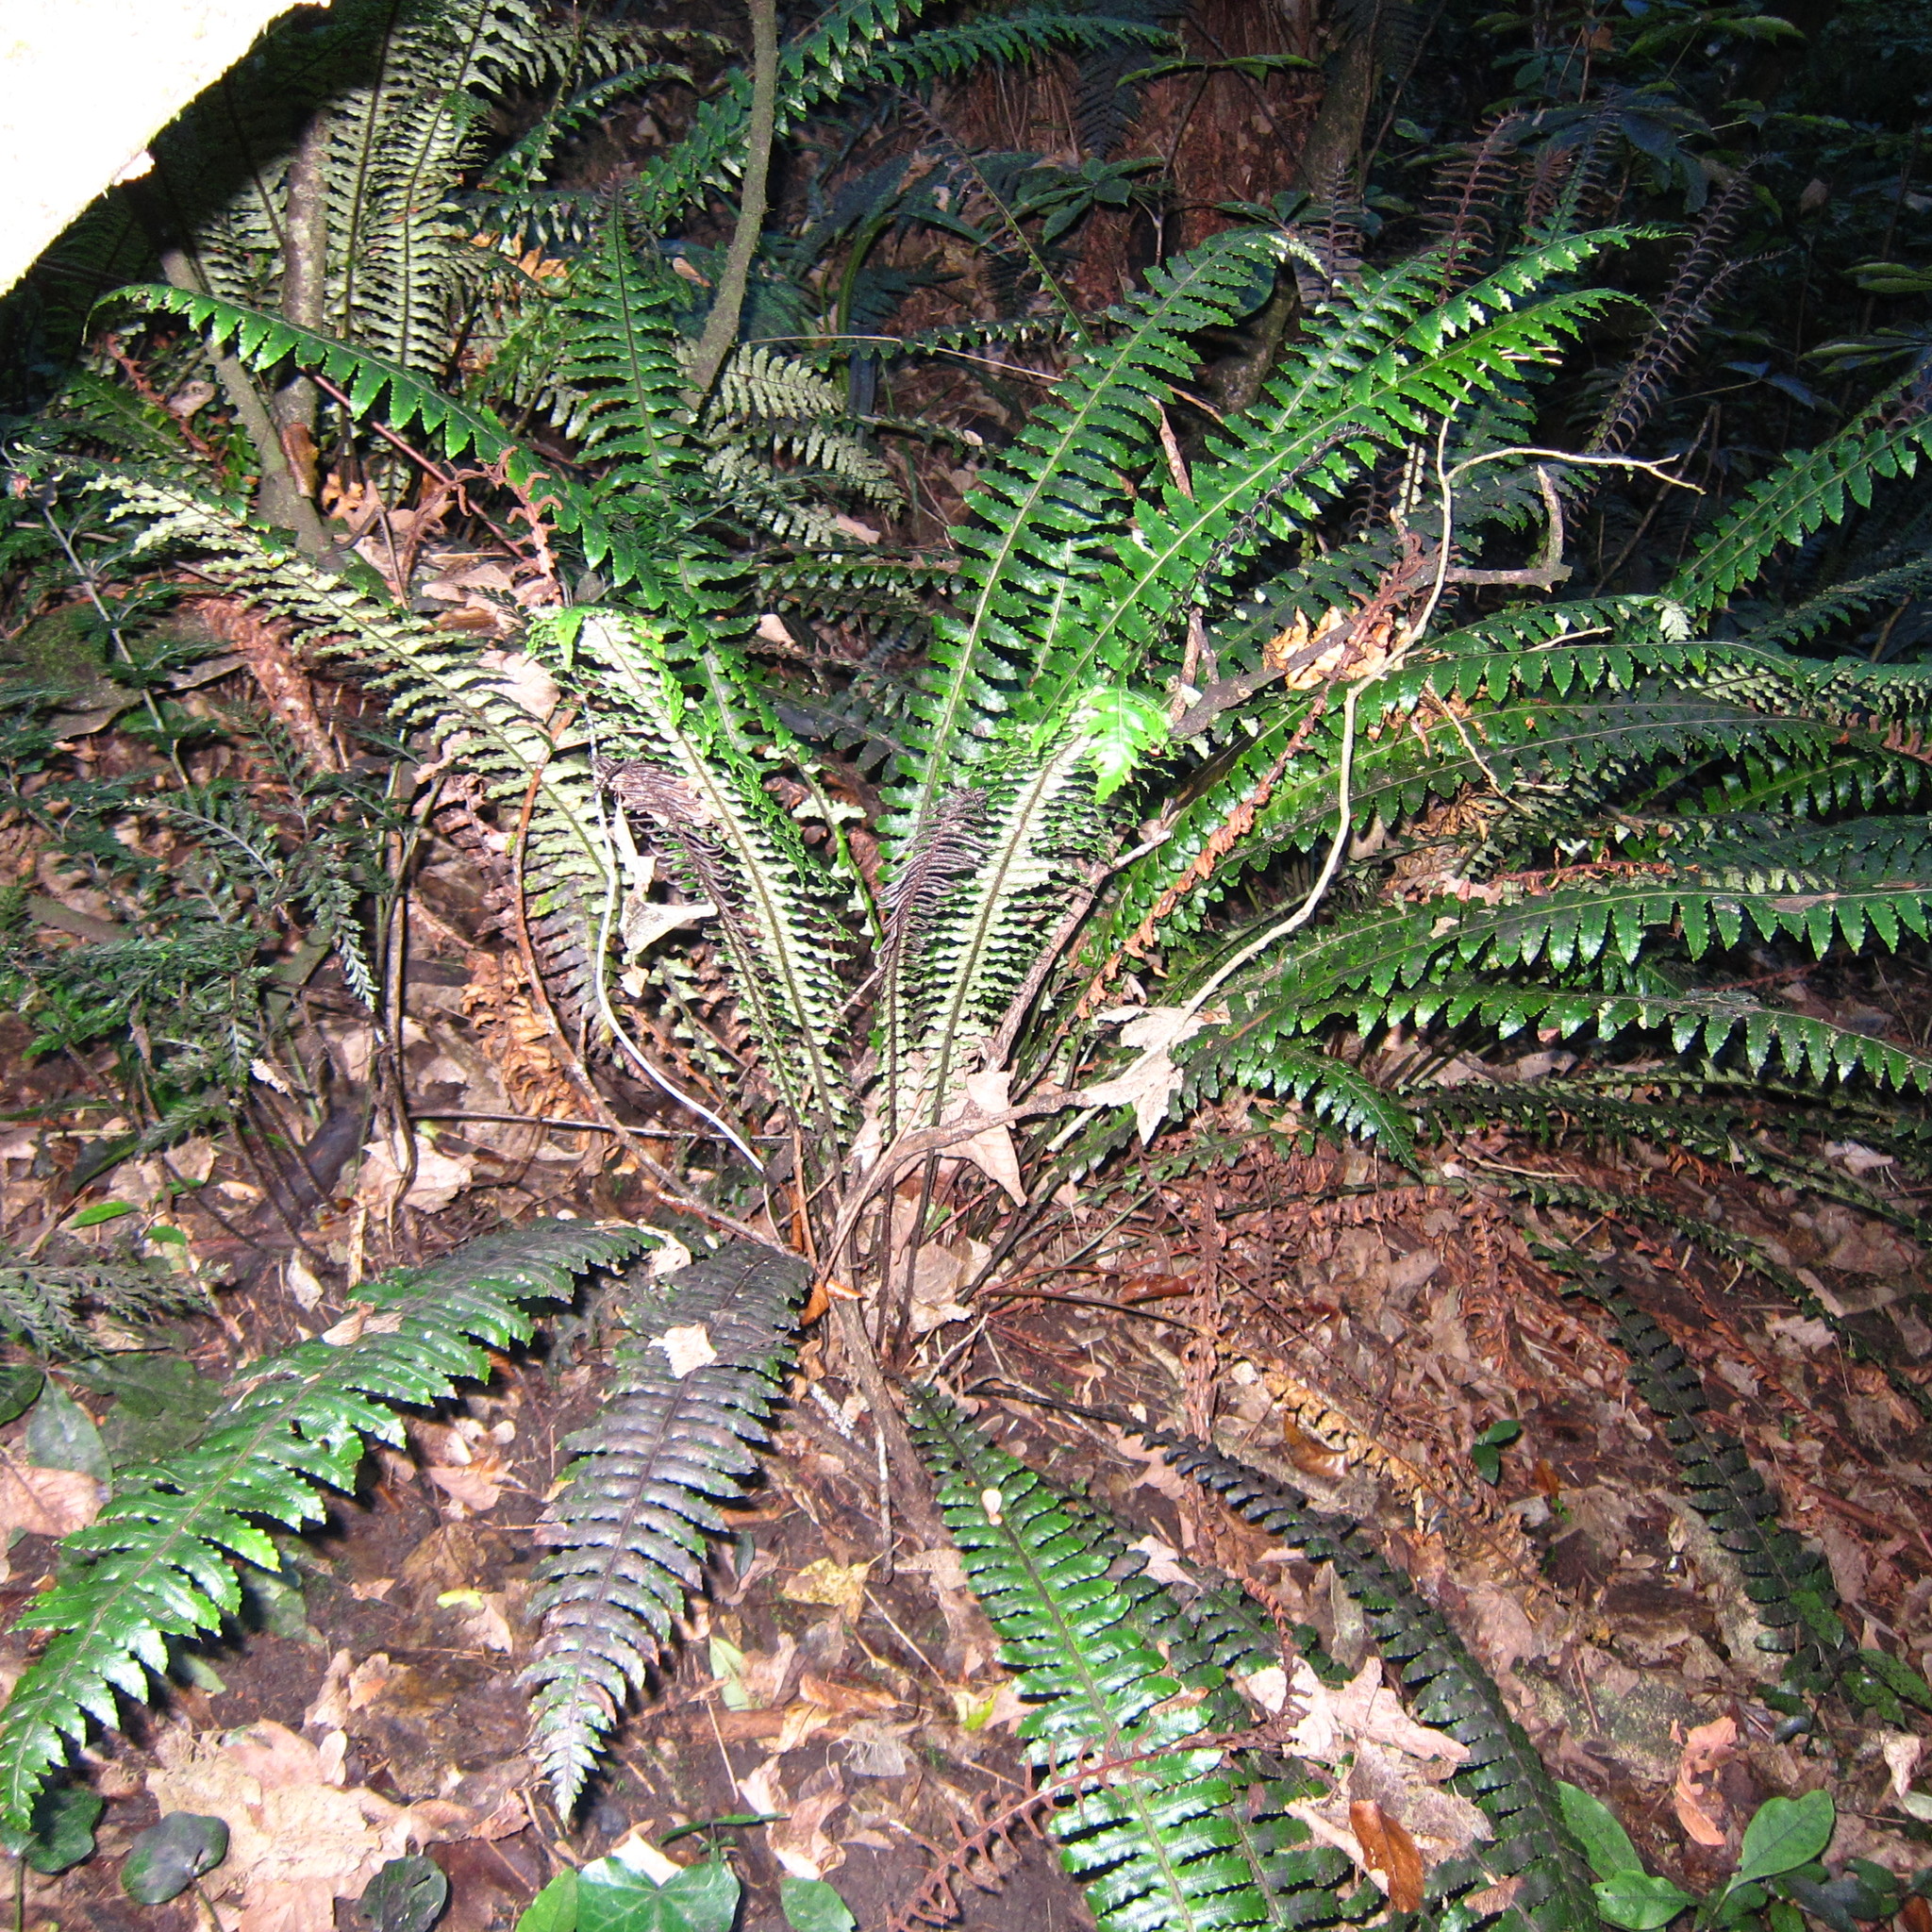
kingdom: Plantae
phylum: Tracheophyta
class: Polypodiopsida
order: Polypodiales
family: Blechnaceae
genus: Lomaria
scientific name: Lomaria discolor
